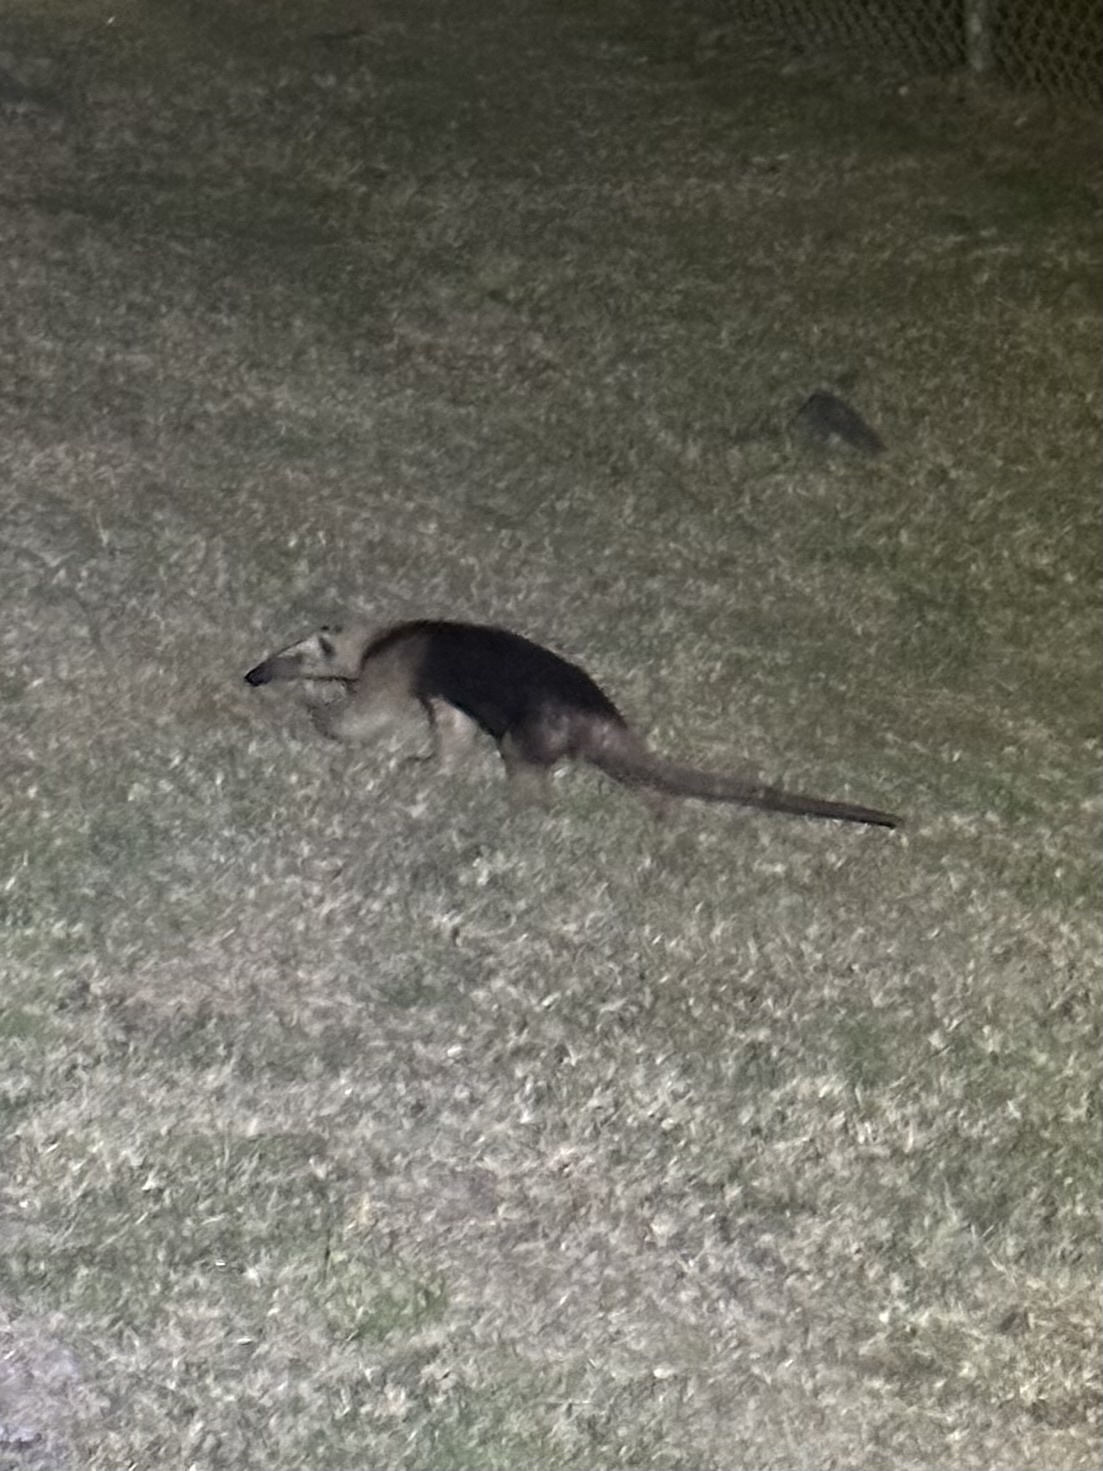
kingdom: Animalia
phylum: Chordata
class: Mammalia
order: Pilosa
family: Myrmecophagidae
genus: Tamandua
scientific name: Tamandua mexicana
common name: Northern tamandua
